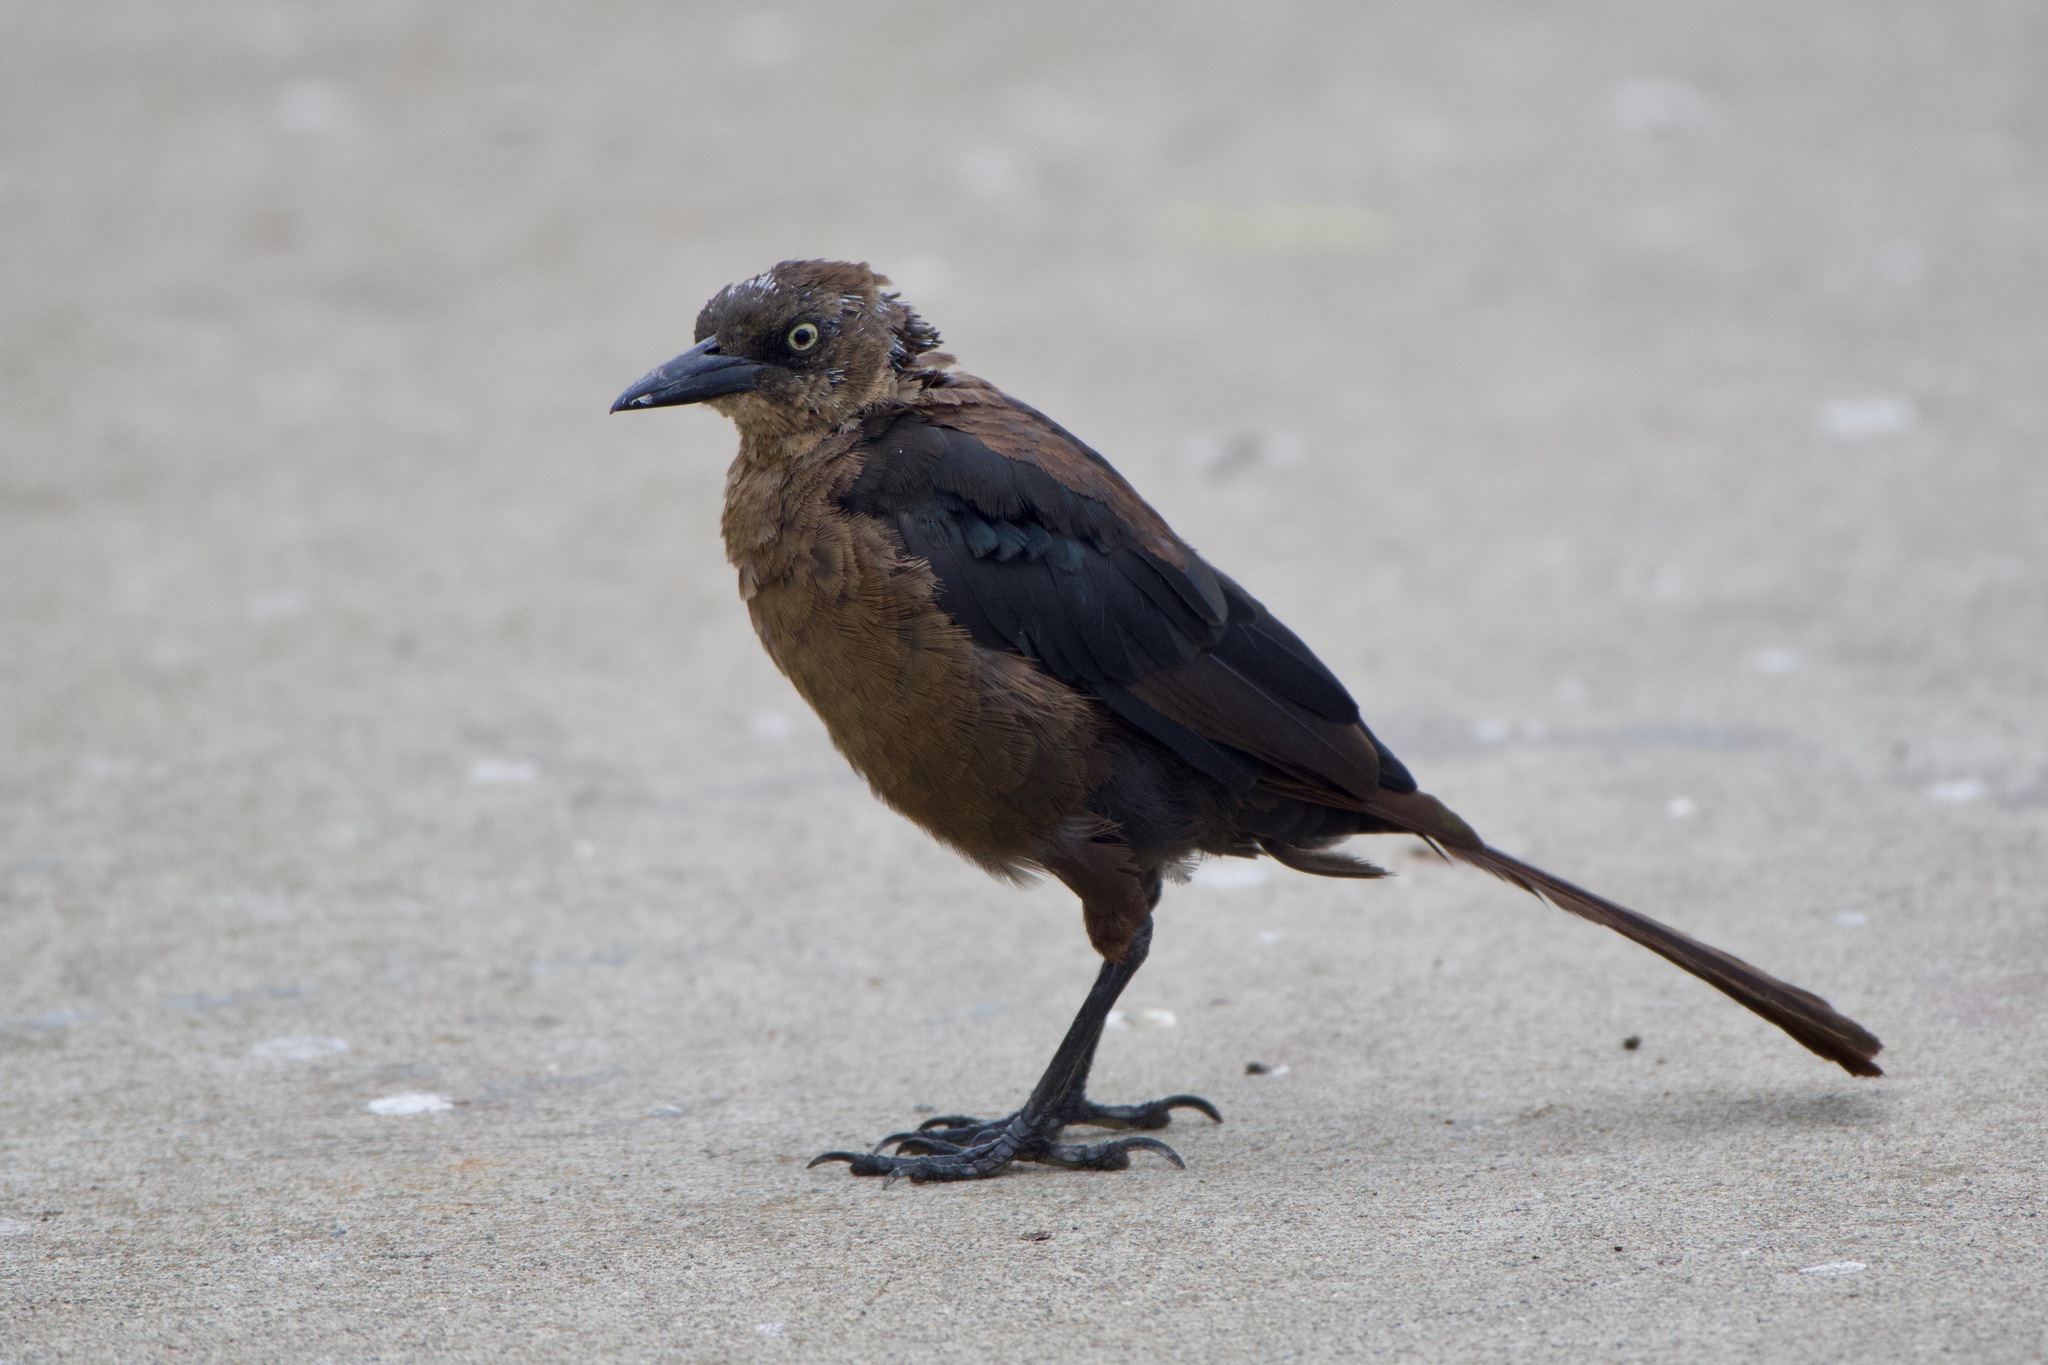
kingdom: Animalia
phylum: Chordata
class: Aves
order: Passeriformes
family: Icteridae
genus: Quiscalus
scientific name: Quiscalus mexicanus
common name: Great-tailed grackle
